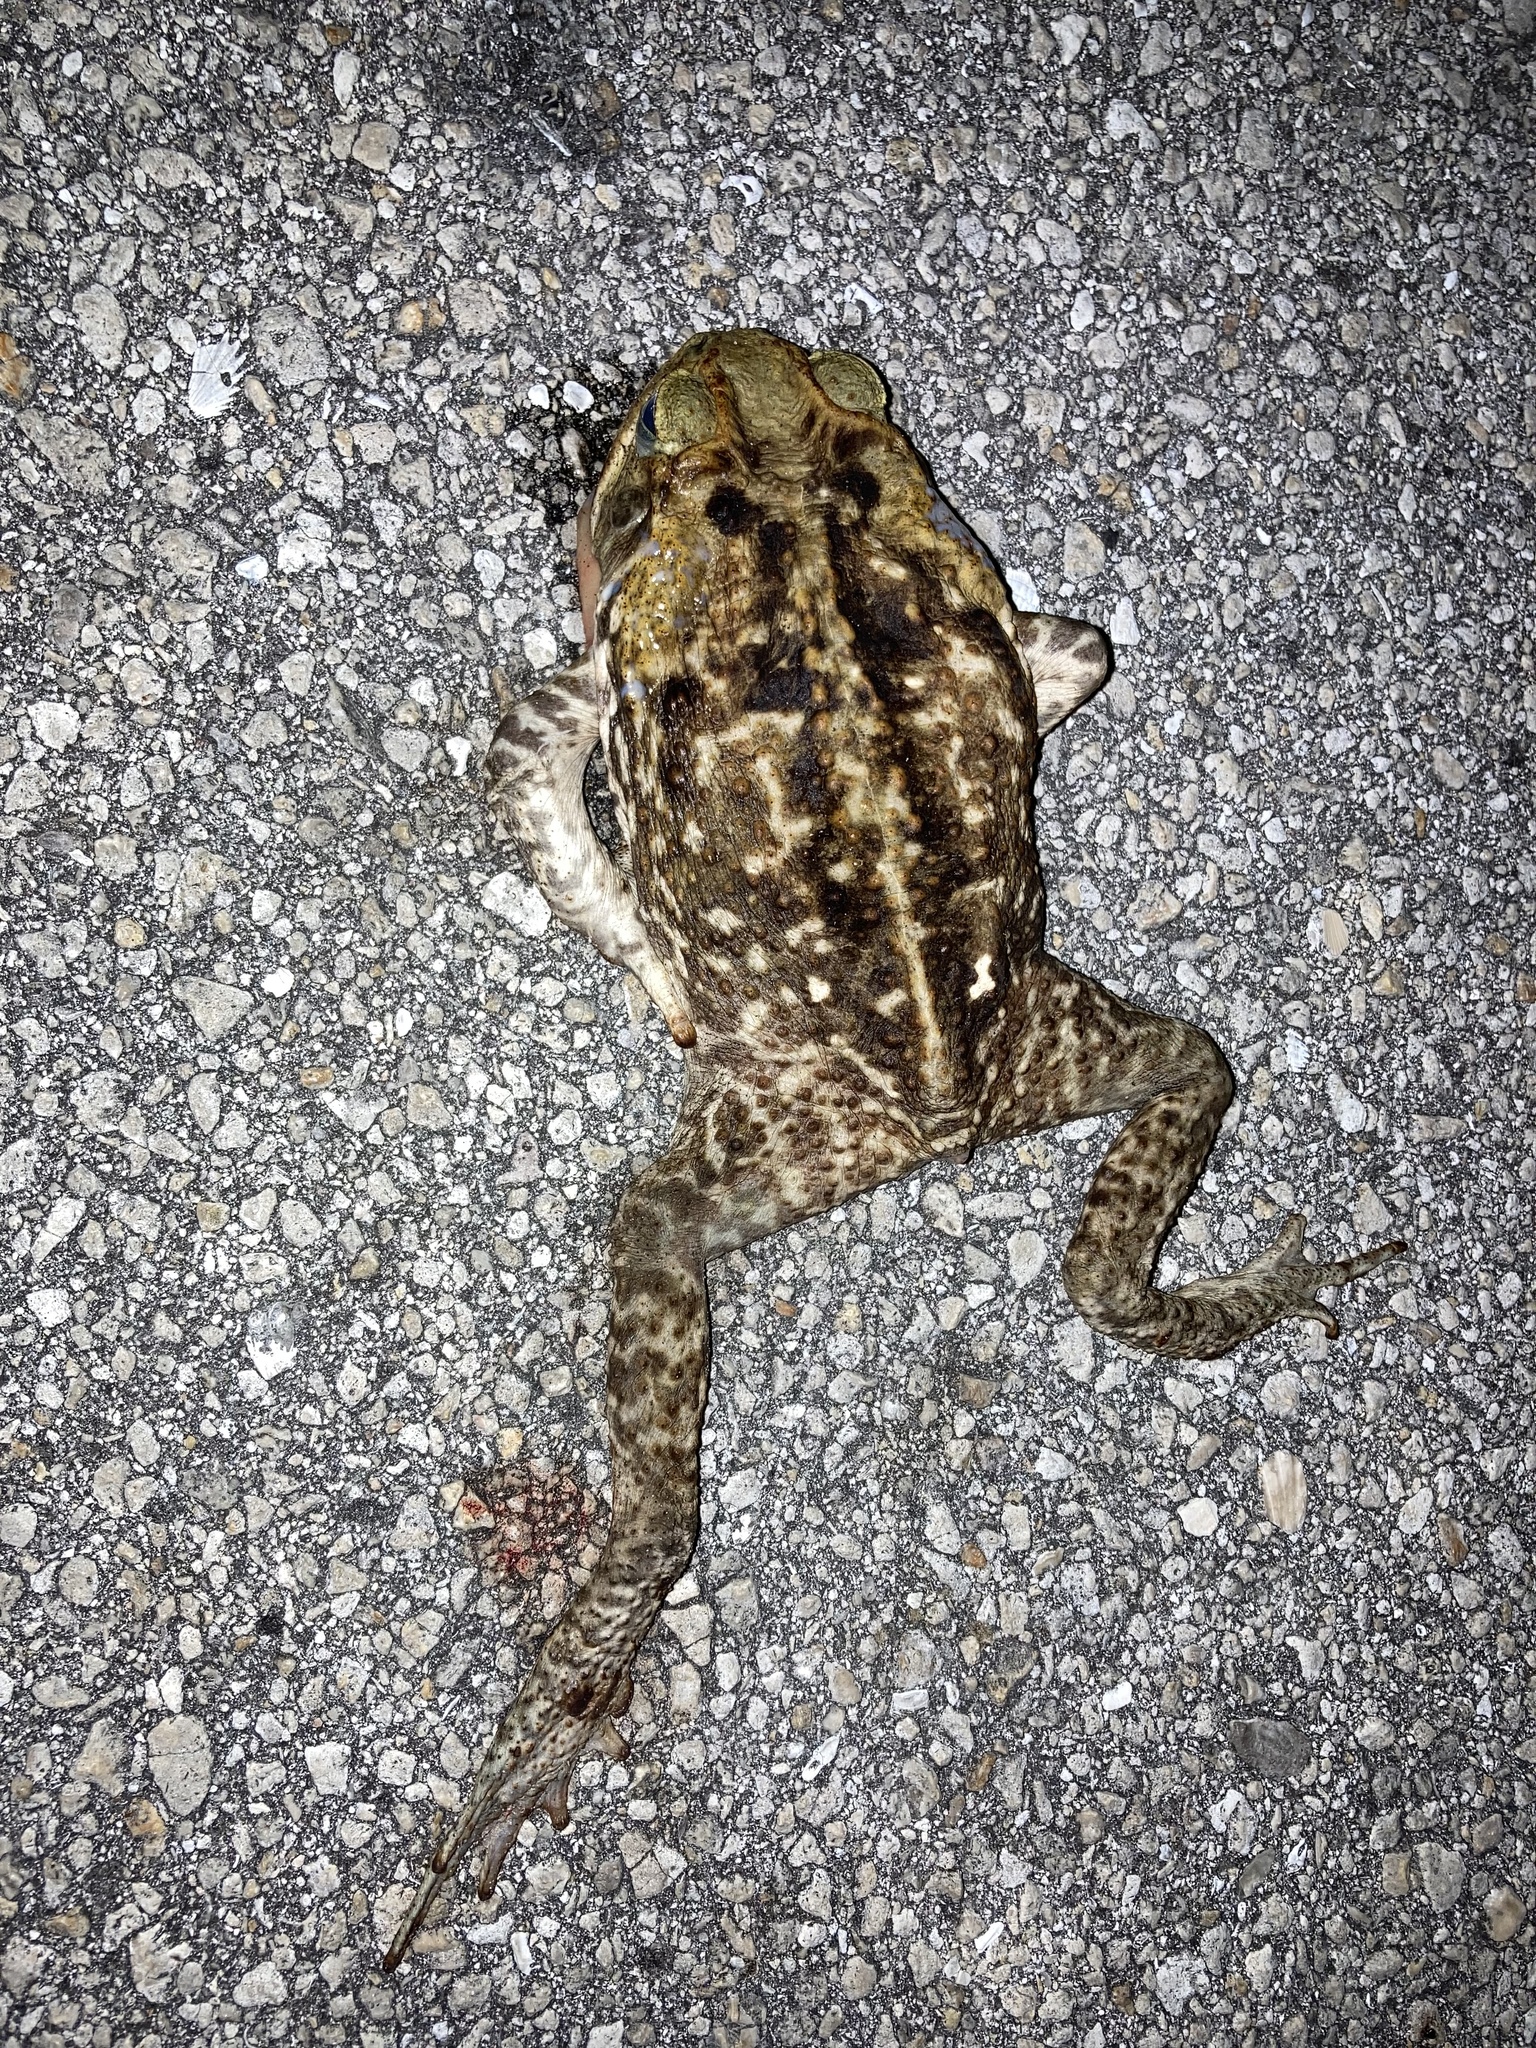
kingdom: Animalia
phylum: Chordata
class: Amphibia
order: Anura
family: Bufonidae
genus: Rhinella
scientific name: Rhinella marina
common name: Cane toad
